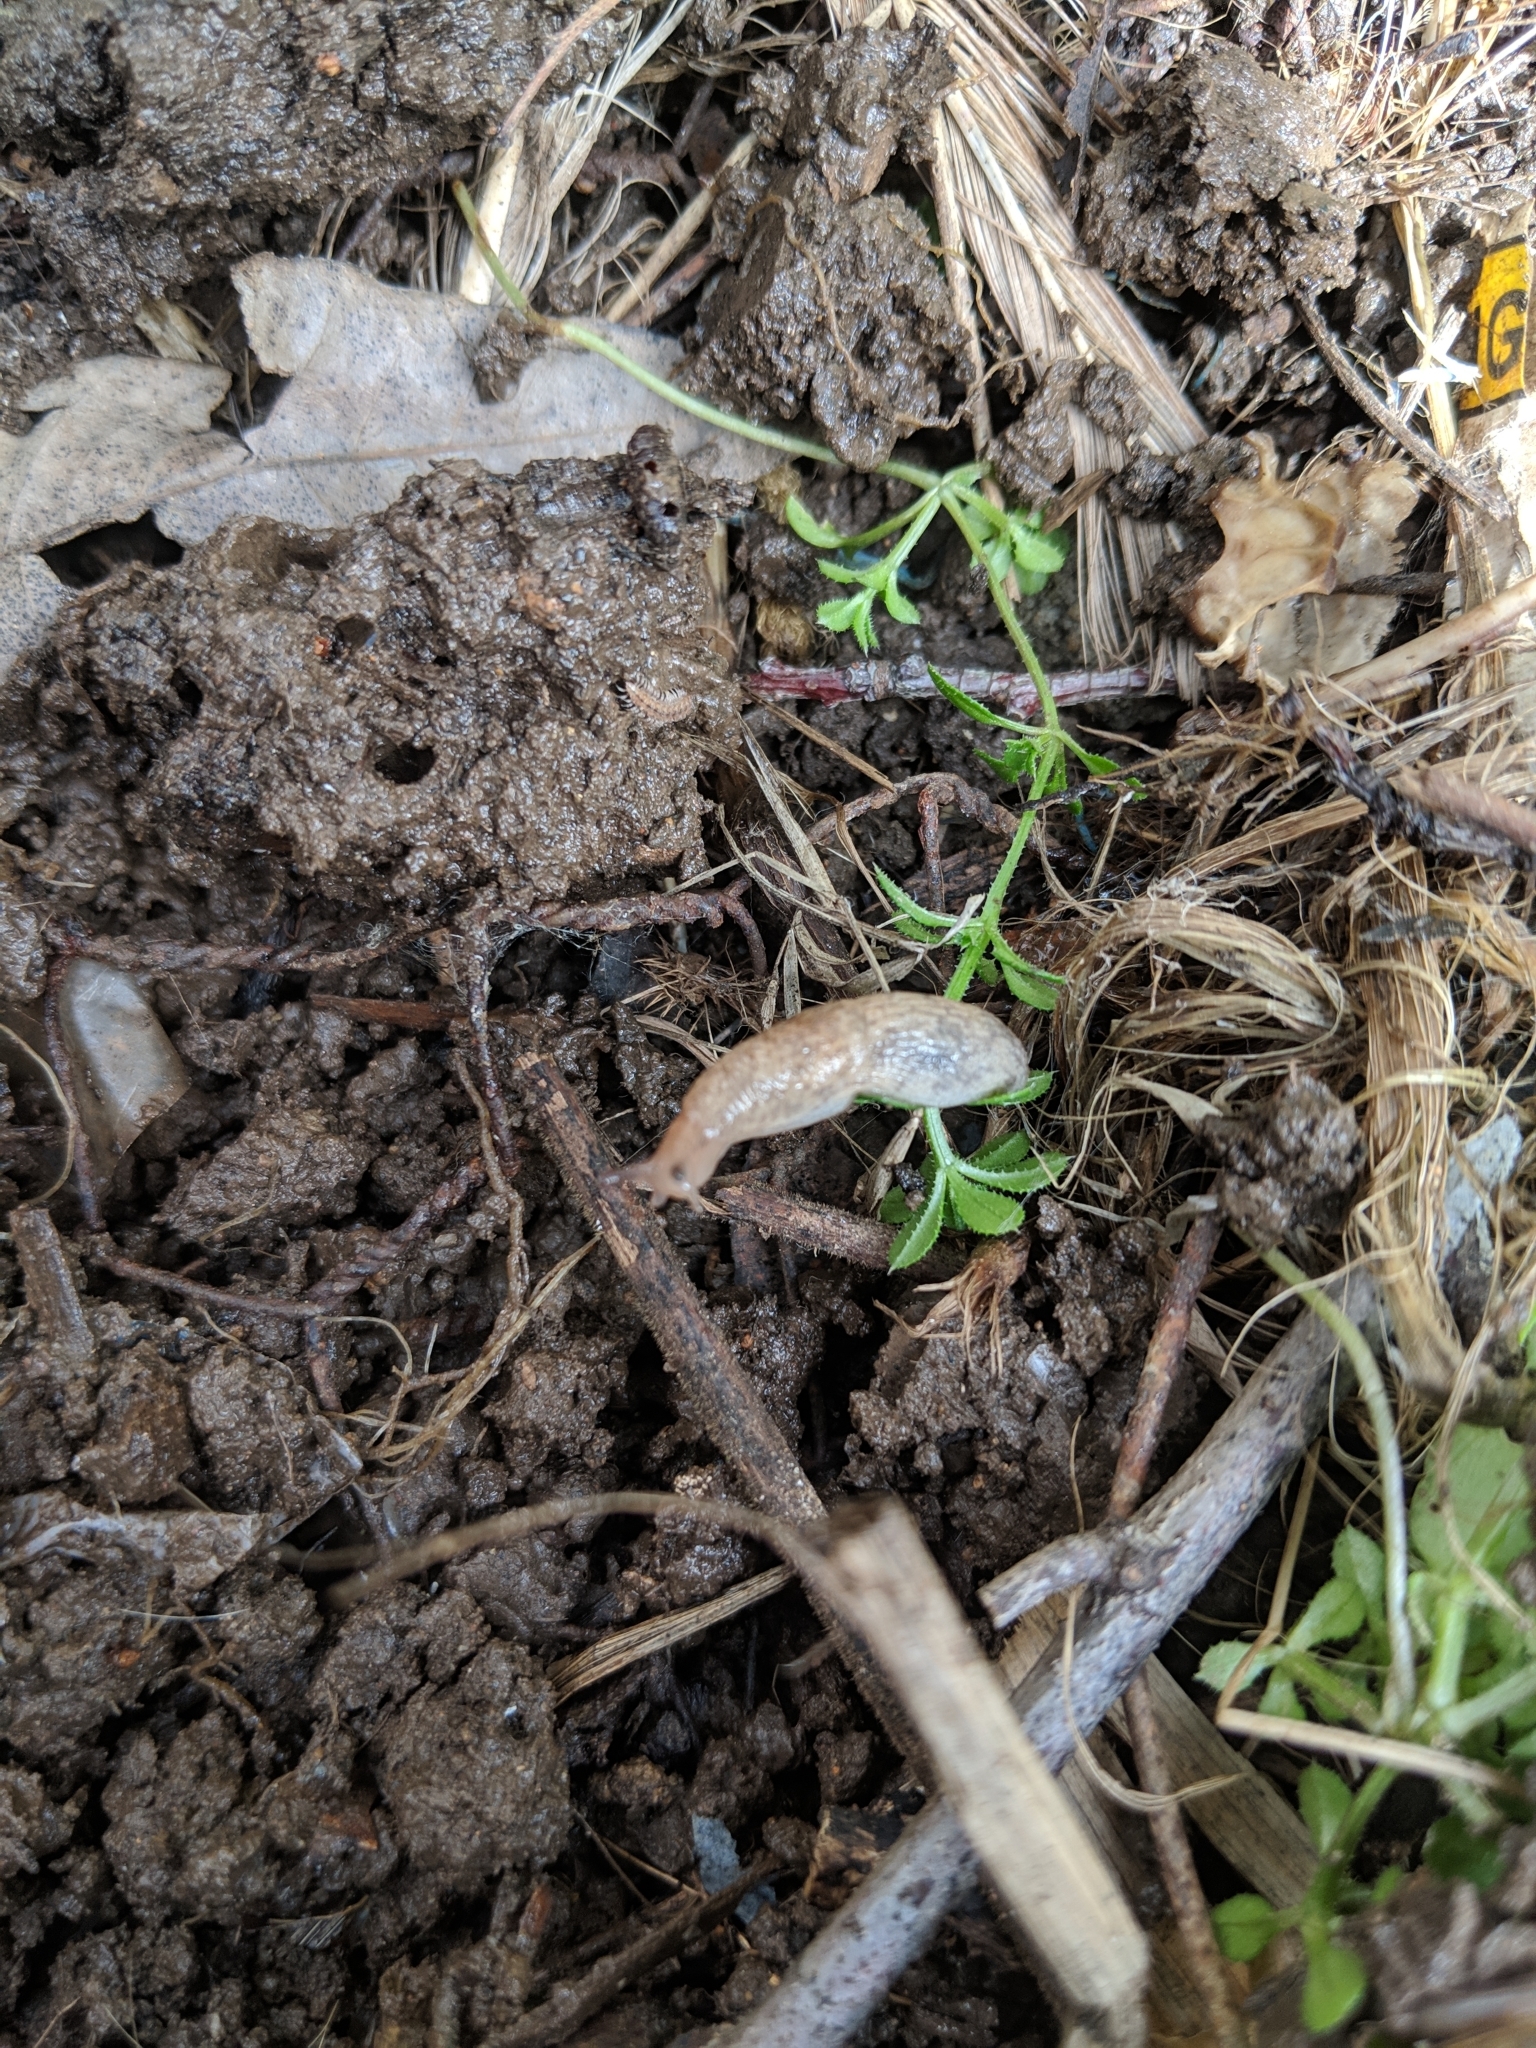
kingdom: Animalia
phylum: Mollusca
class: Gastropoda
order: Stylommatophora
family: Agriolimacidae
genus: Deroceras
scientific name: Deroceras reticulatum
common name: Gray field slug
